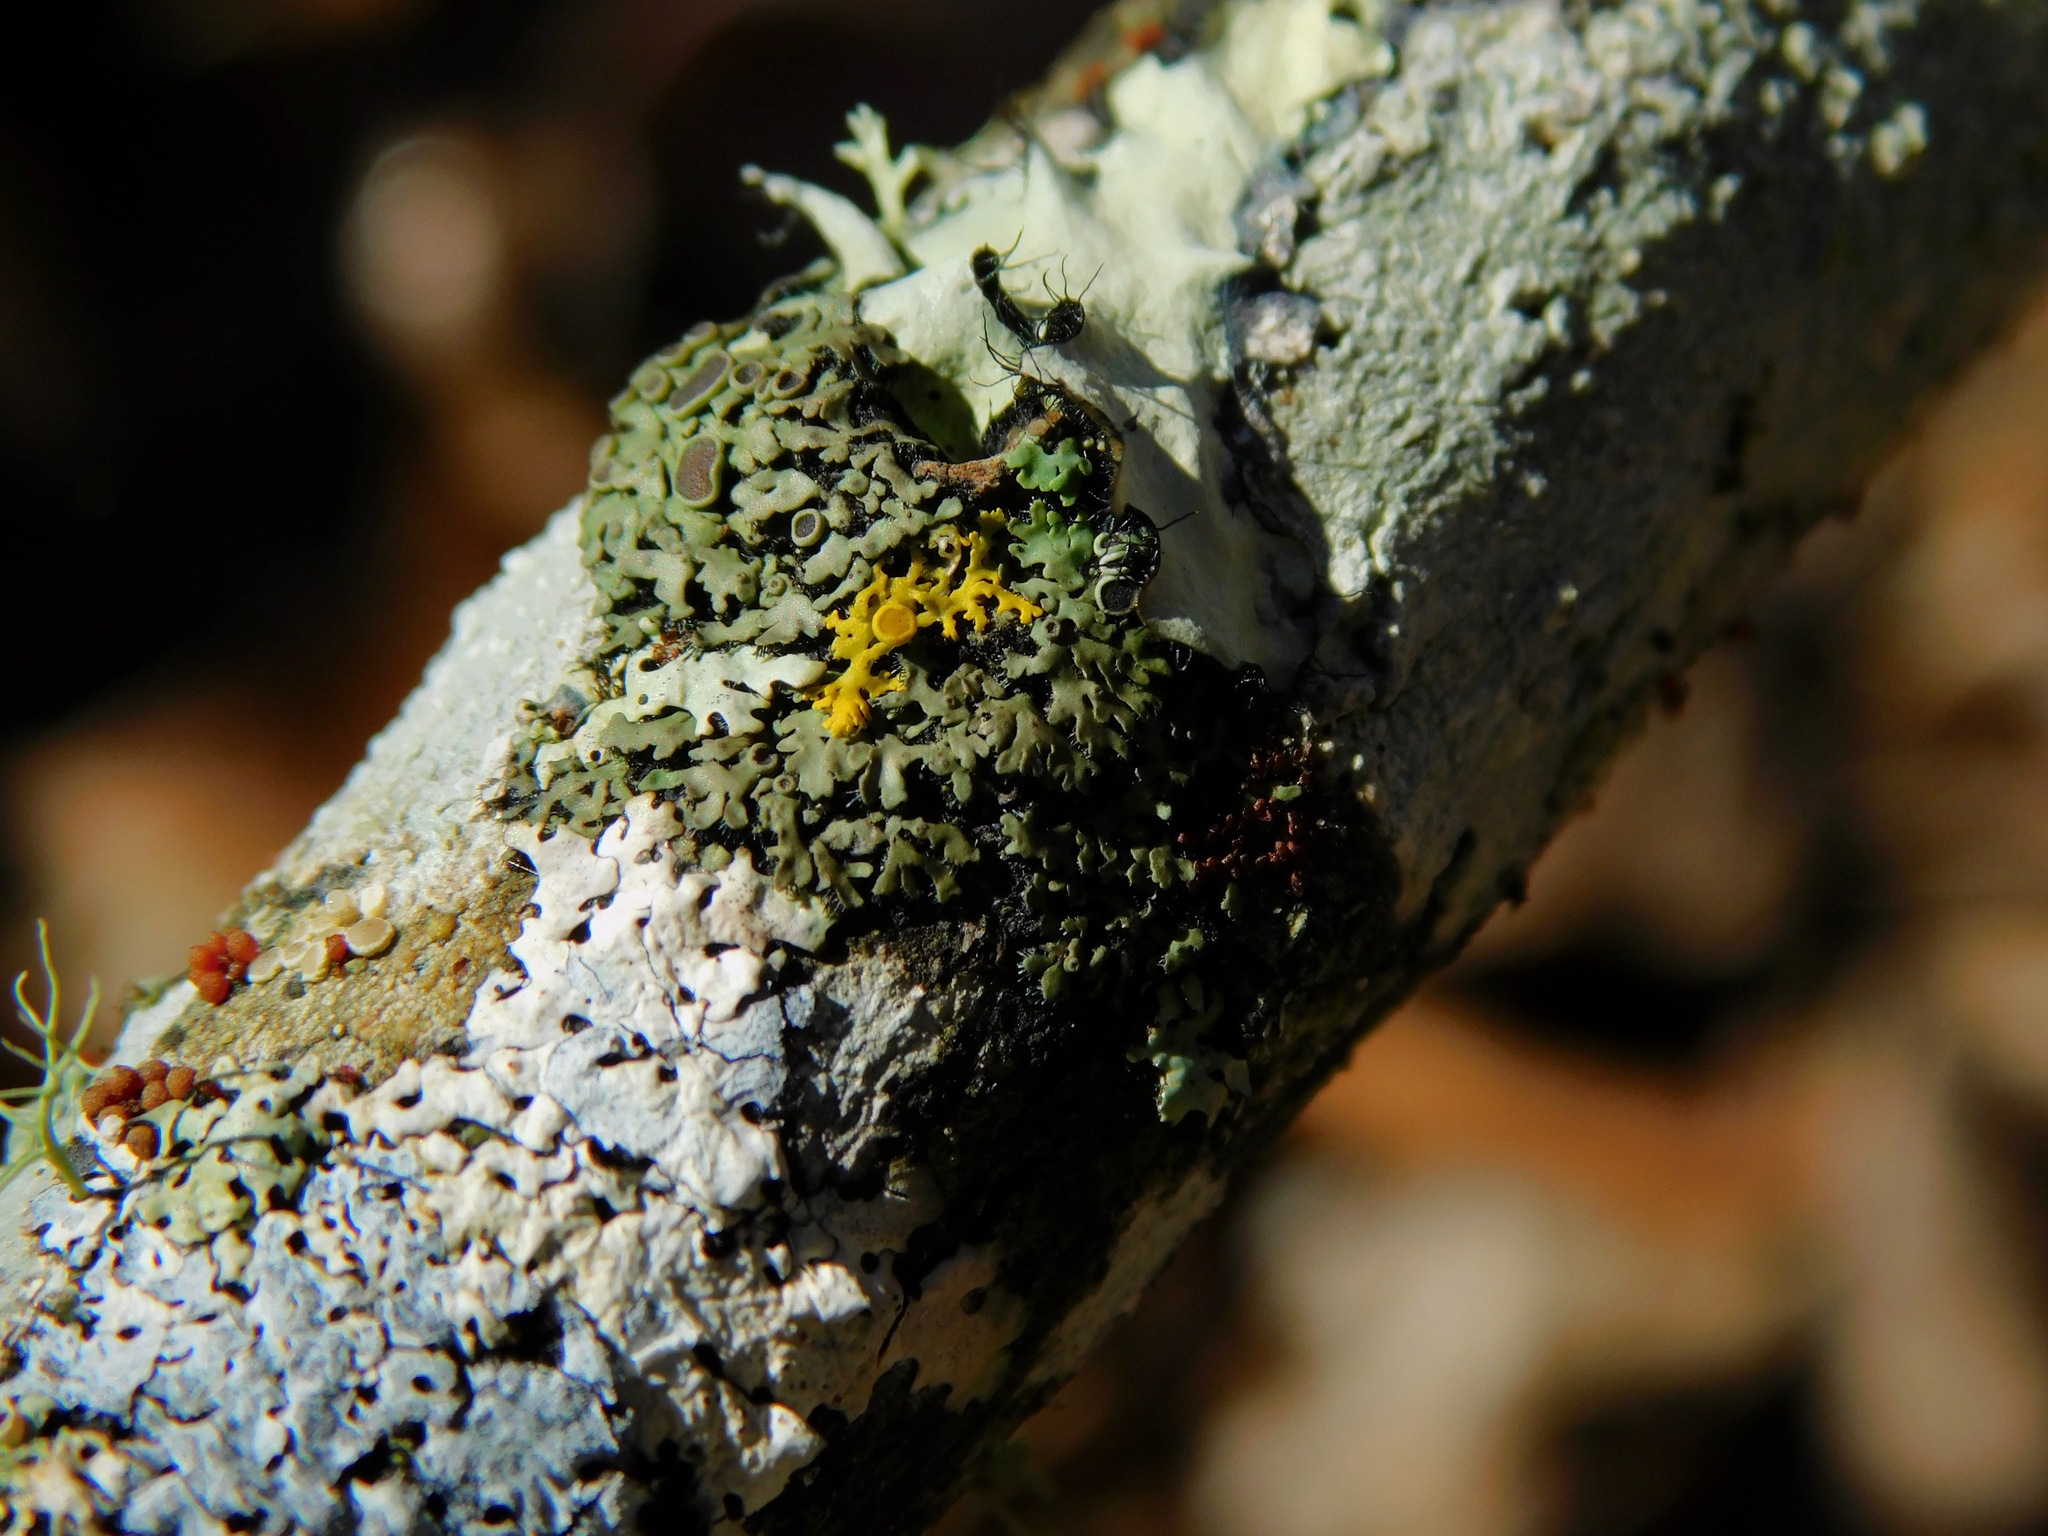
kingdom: Fungi
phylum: Ascomycota
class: Lecanoromycetes
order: Teloschistales
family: Teloschistaceae
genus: Gallowayella
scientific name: Gallowayella hasseana
